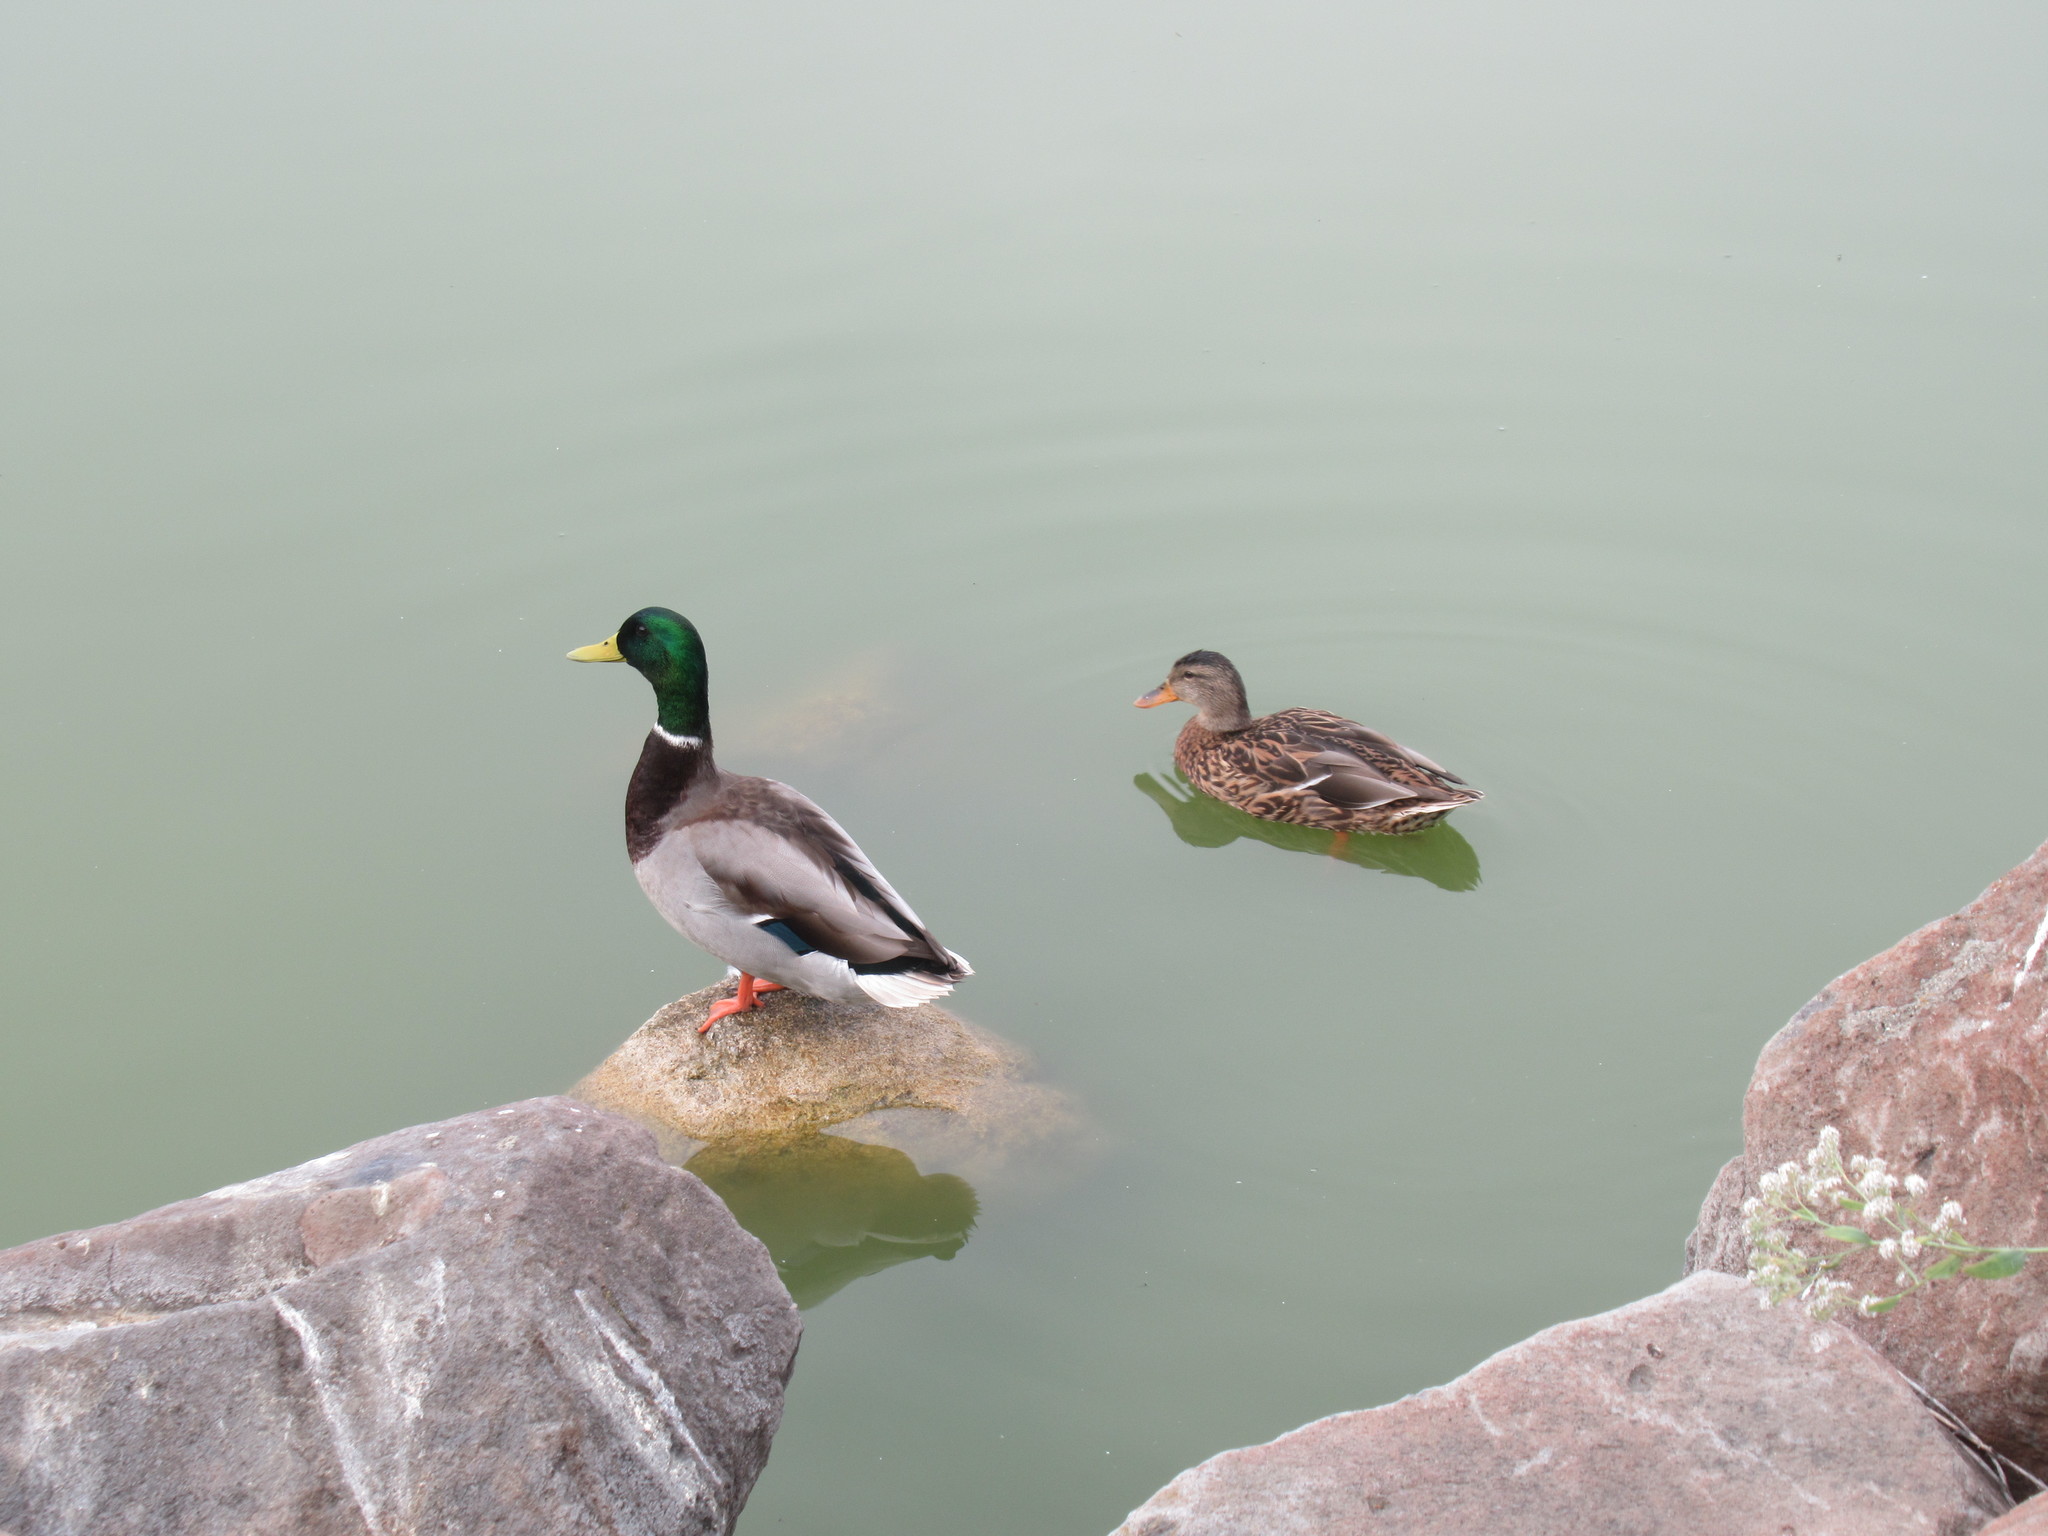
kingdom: Animalia
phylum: Chordata
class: Aves
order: Anseriformes
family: Anatidae
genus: Anas
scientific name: Anas platyrhynchos
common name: Mallard
